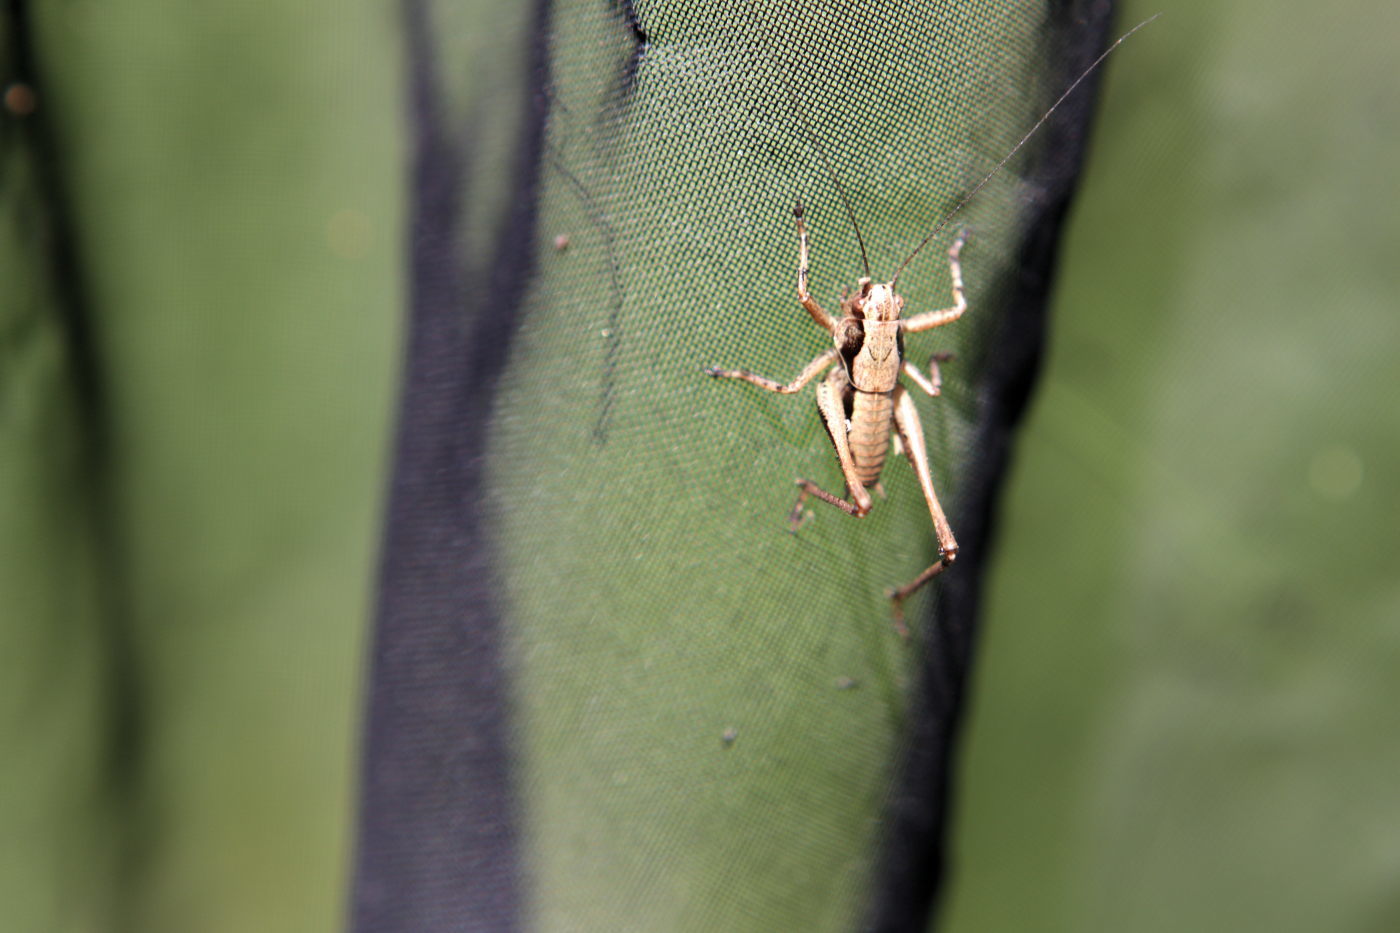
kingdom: Animalia
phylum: Arthropoda
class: Insecta
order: Orthoptera
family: Tettigoniidae
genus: Pholidoptera
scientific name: Pholidoptera griseoaptera
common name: Dark bush-cricket
